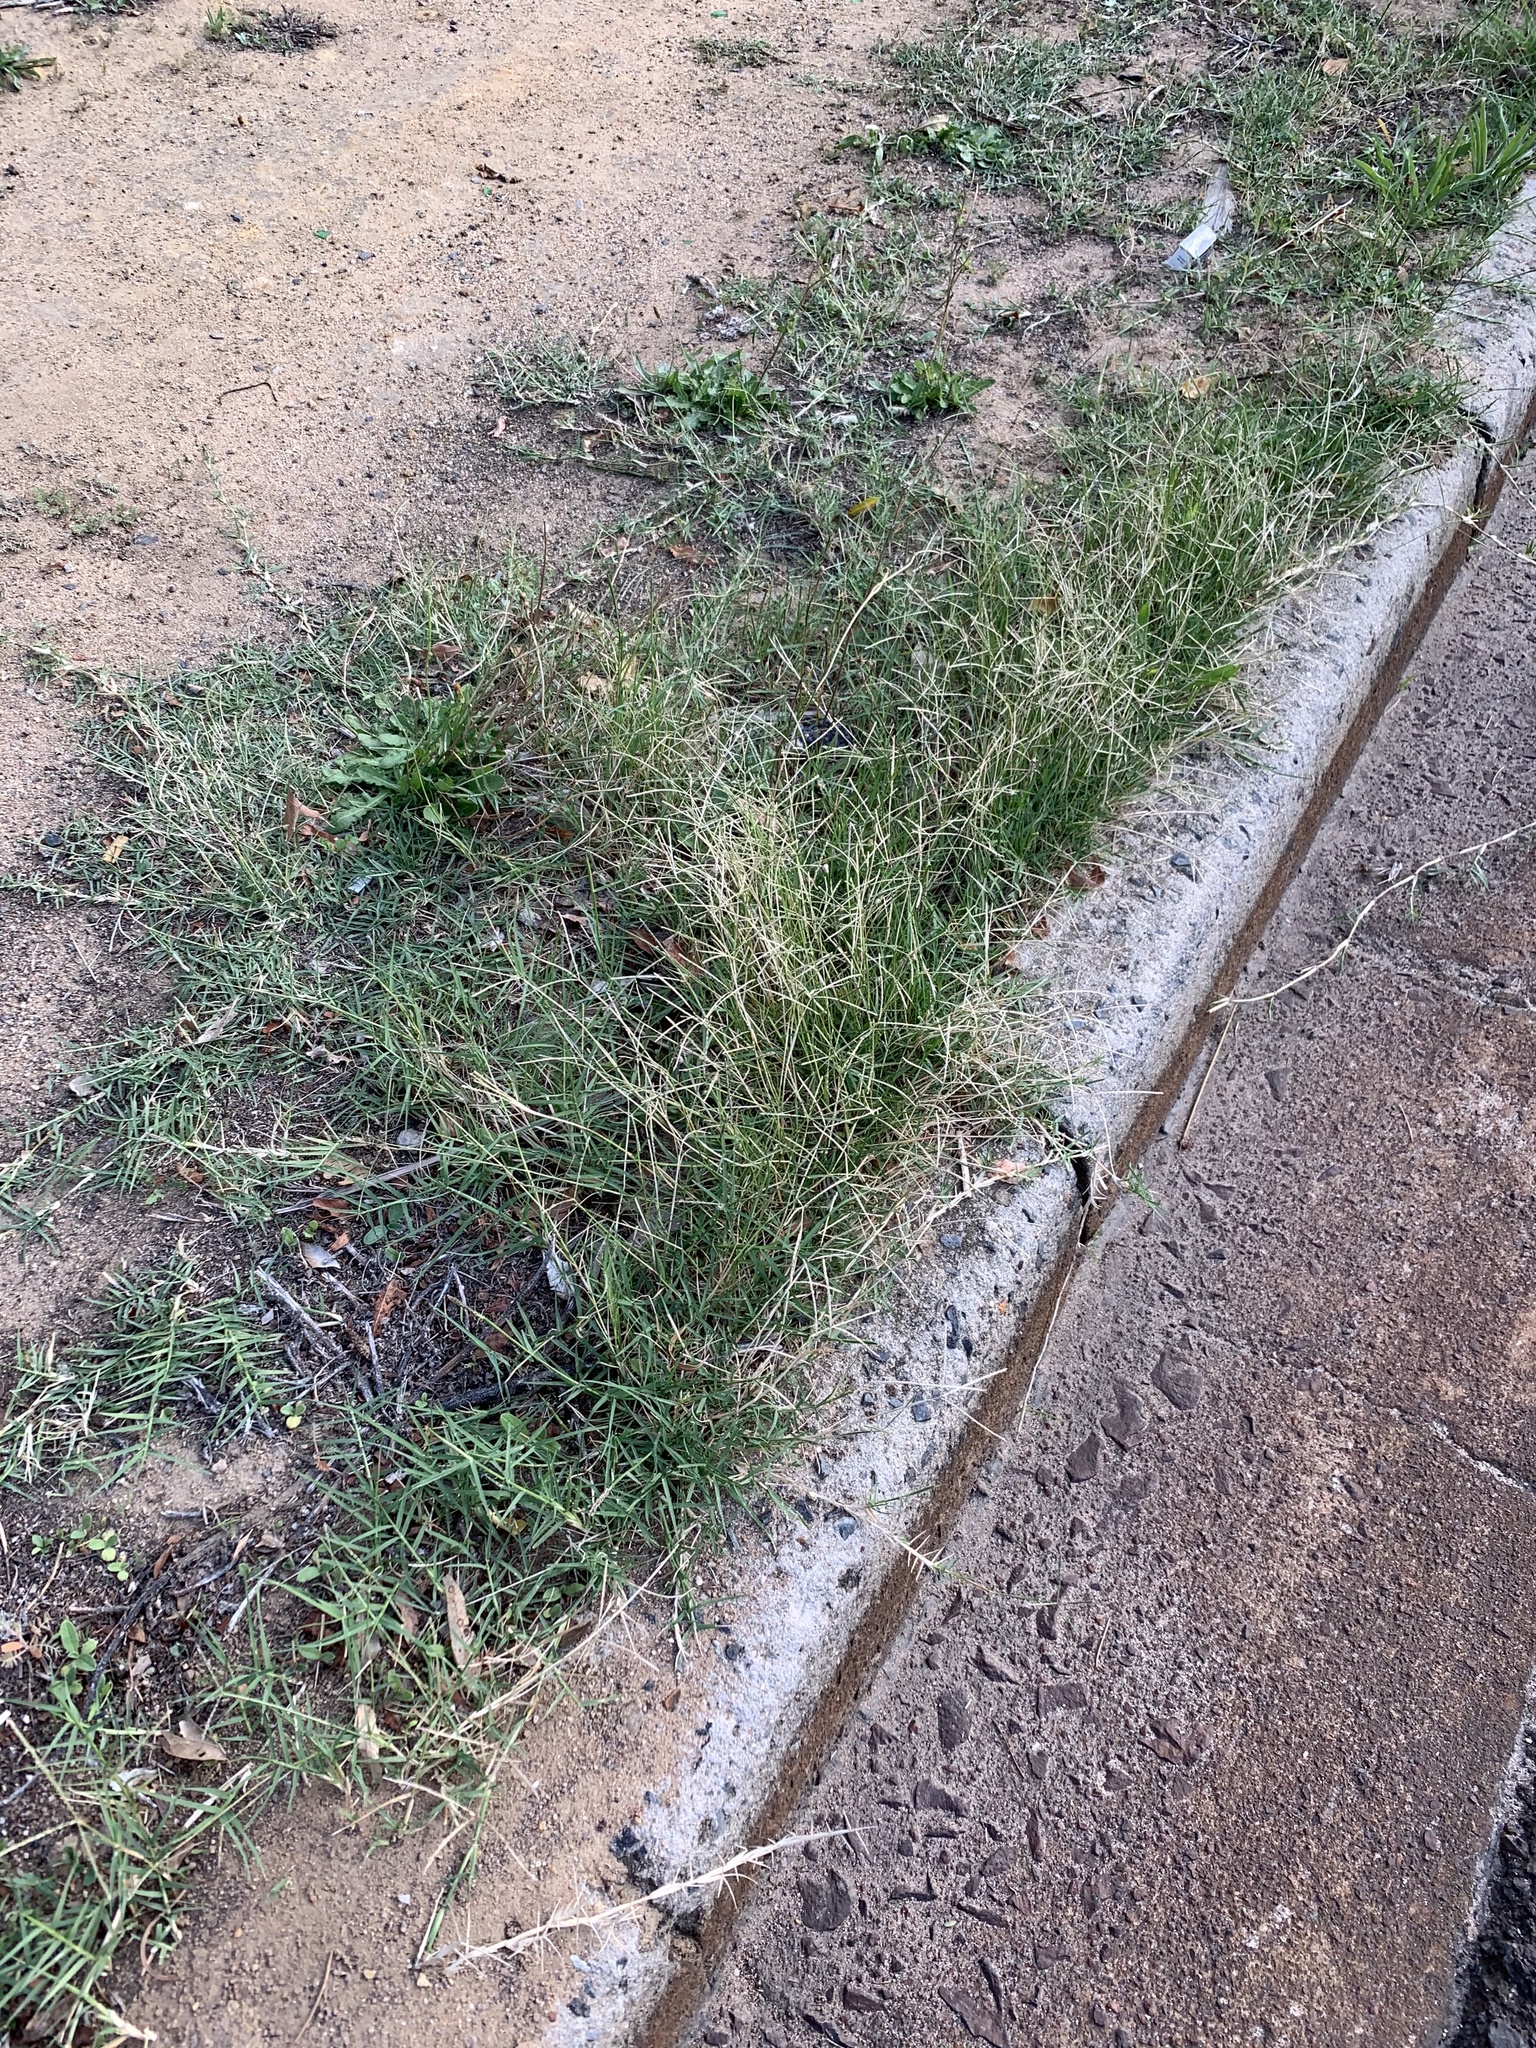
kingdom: Plantae
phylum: Tracheophyta
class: Liliopsida
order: Poales
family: Poaceae
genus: Cynodon
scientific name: Cynodon dactylon
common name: Bermuda grass
